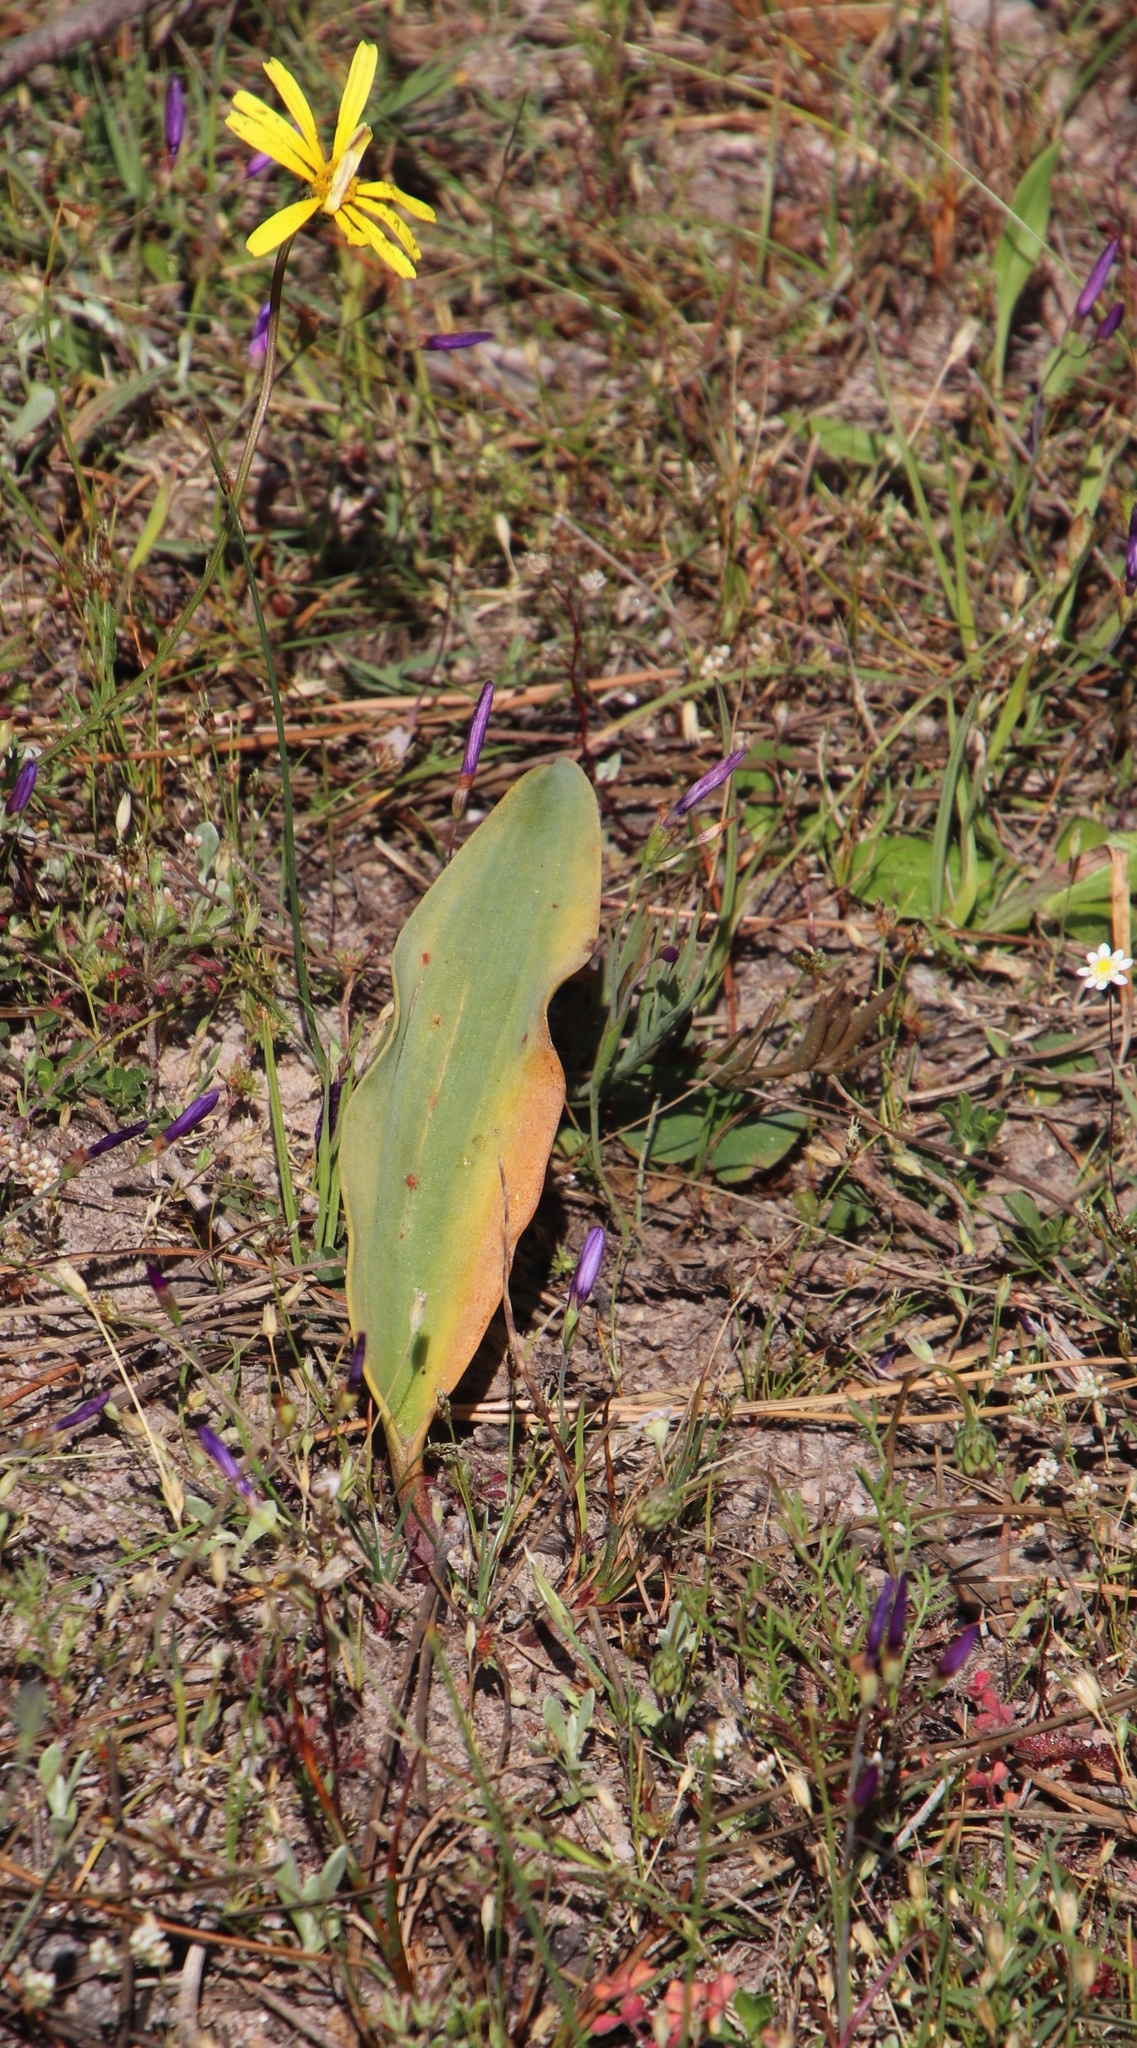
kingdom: Plantae
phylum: Tracheophyta
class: Liliopsida
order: Asparagales
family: Asparagaceae
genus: Eriospermum
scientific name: Eriospermum lanceifolium
